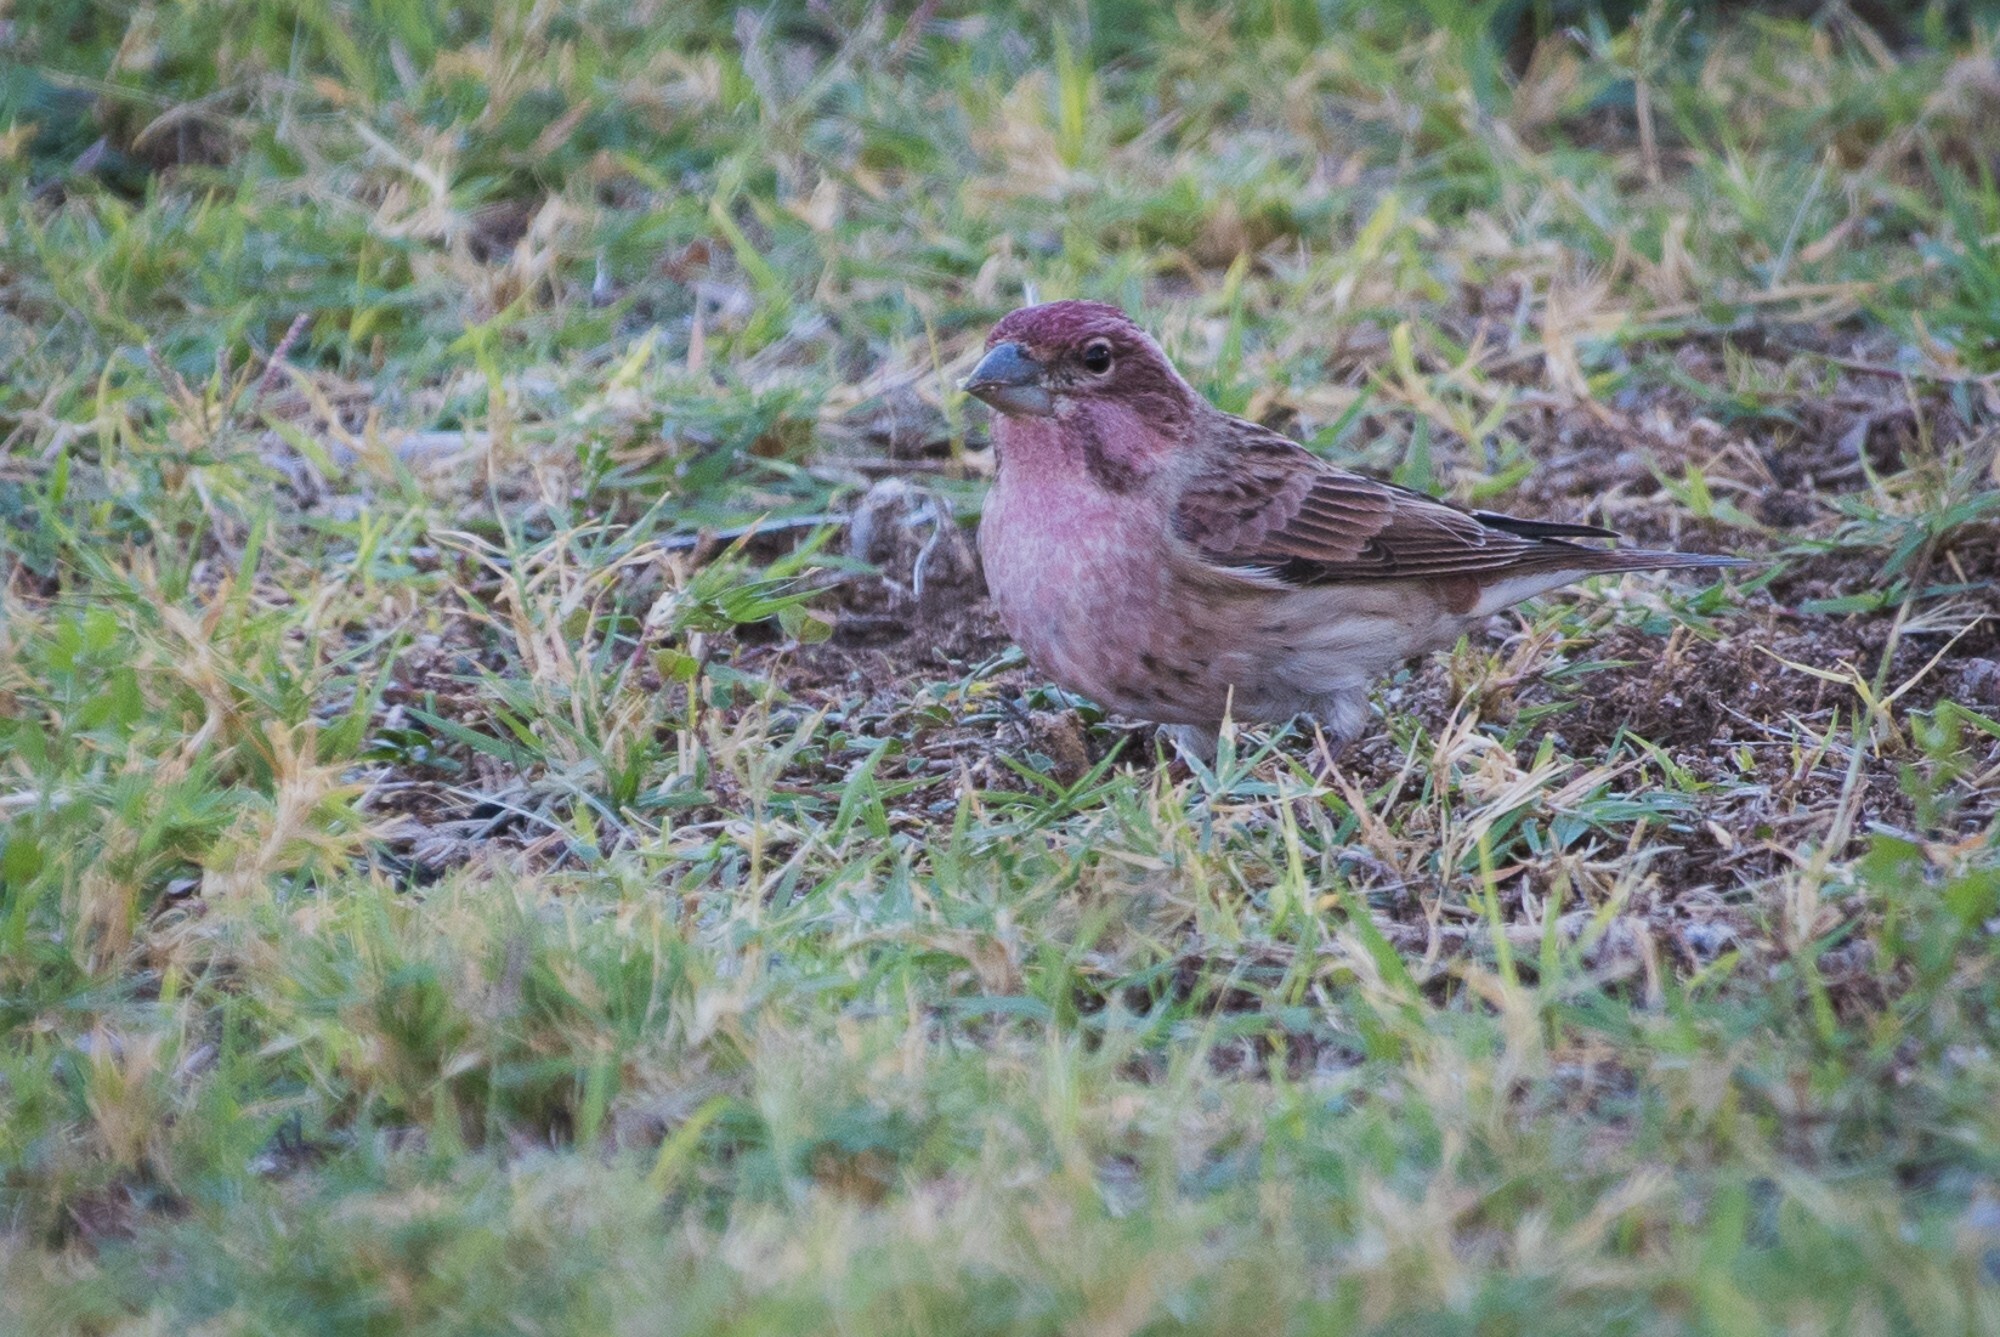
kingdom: Animalia
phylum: Chordata
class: Aves
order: Passeriformes
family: Fringillidae
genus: Haemorhous
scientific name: Haemorhous cassinii
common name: Cassin's finch
